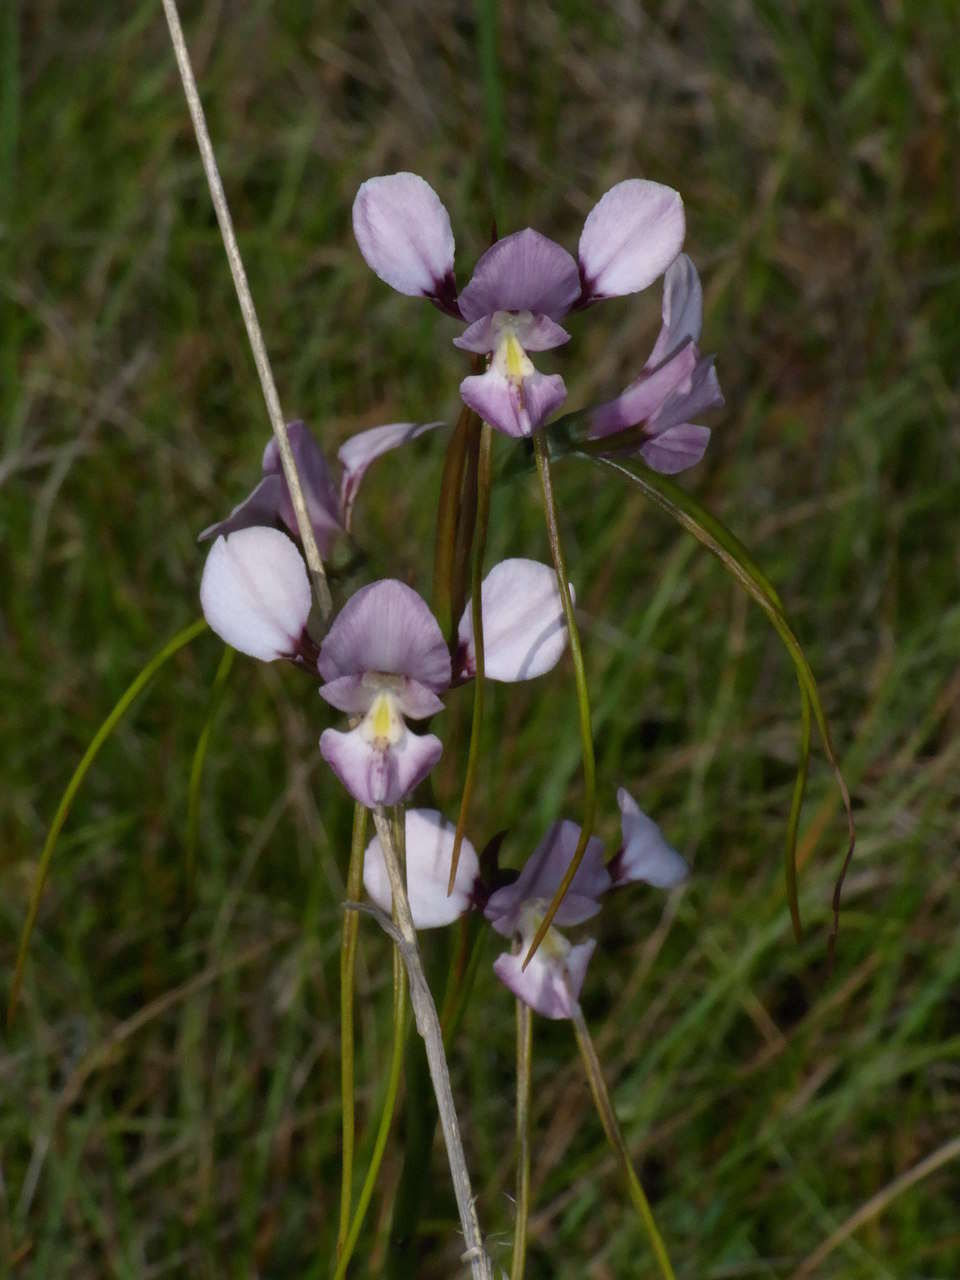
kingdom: Plantae
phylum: Tracheophyta
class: Liliopsida
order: Asparagales
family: Orchidaceae
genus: Diuris
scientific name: Diuris punctata
